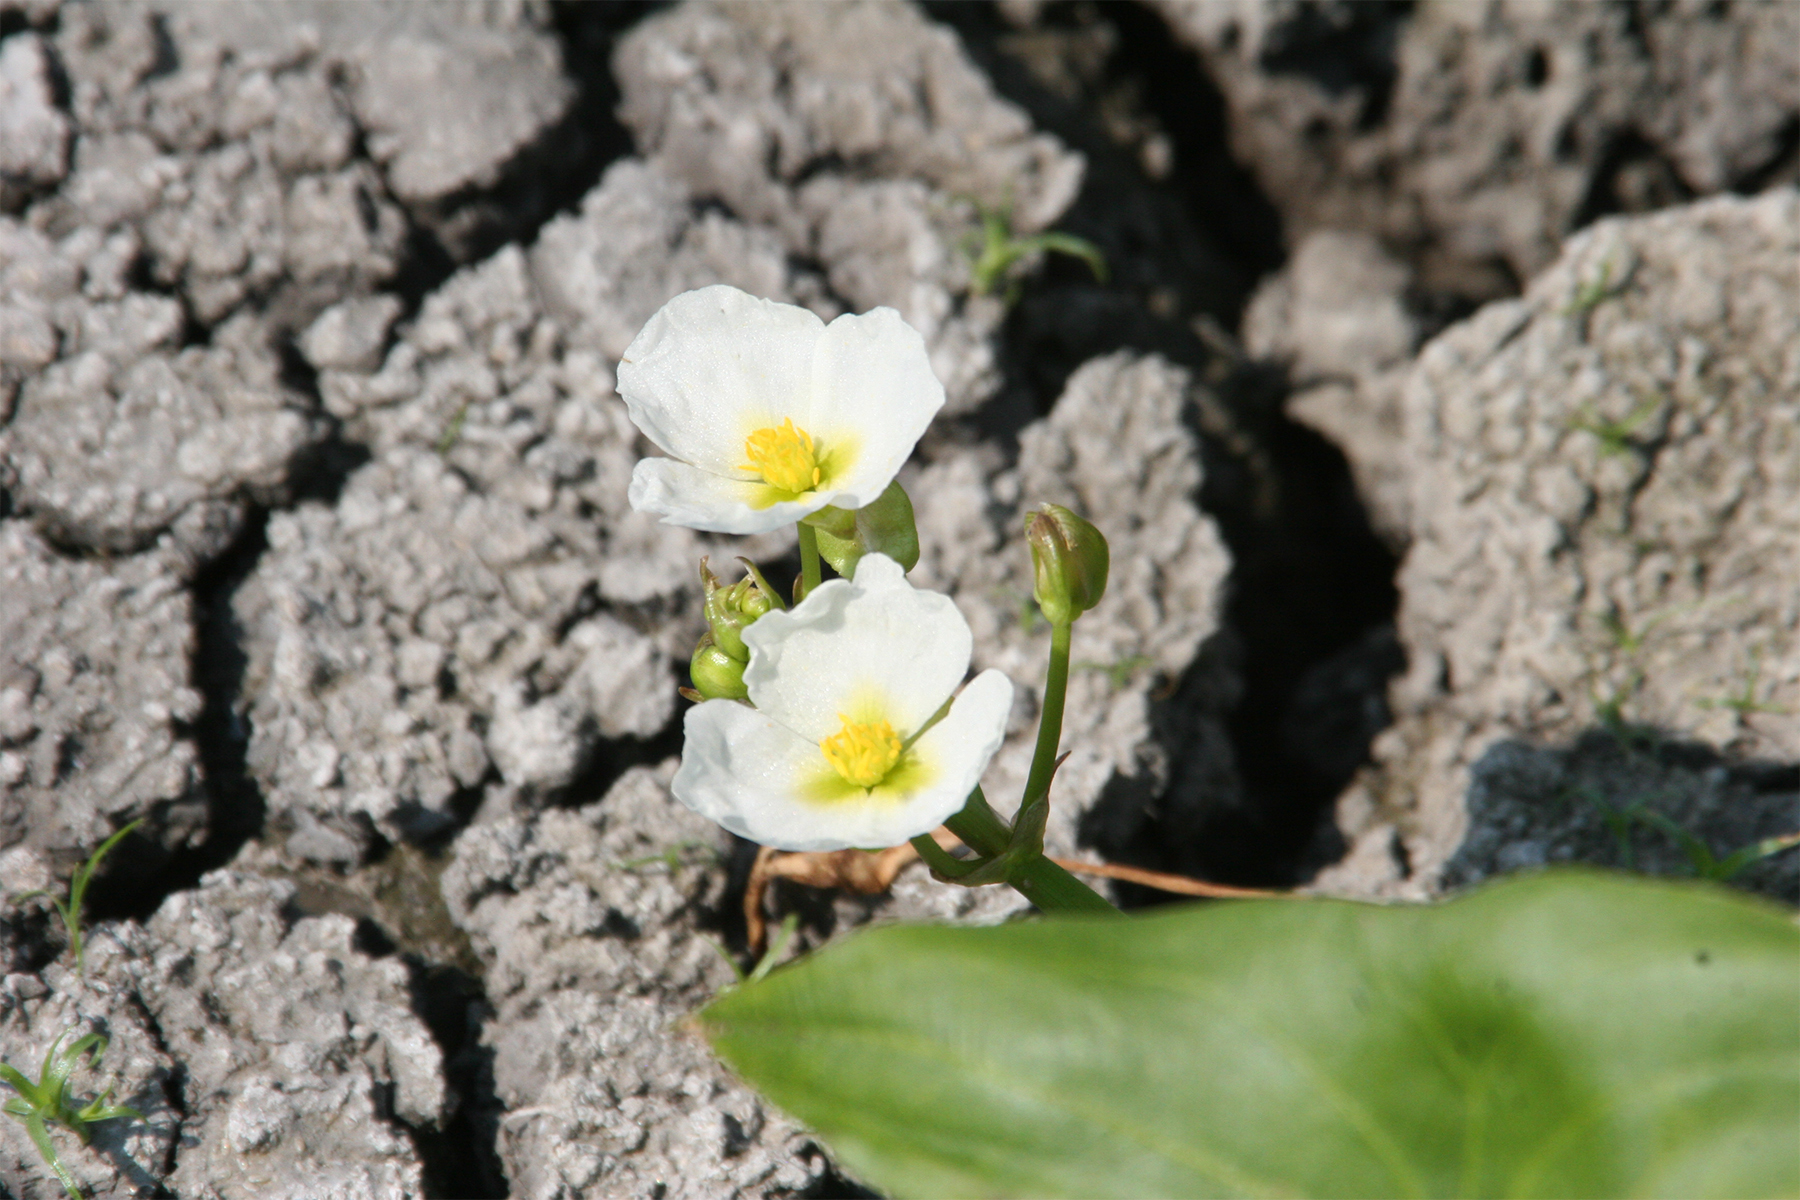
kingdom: Plantae
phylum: Tracheophyta
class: Liliopsida
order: Alismatales
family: Alismataceae
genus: Sagittaria
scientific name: Sagittaria calycina
